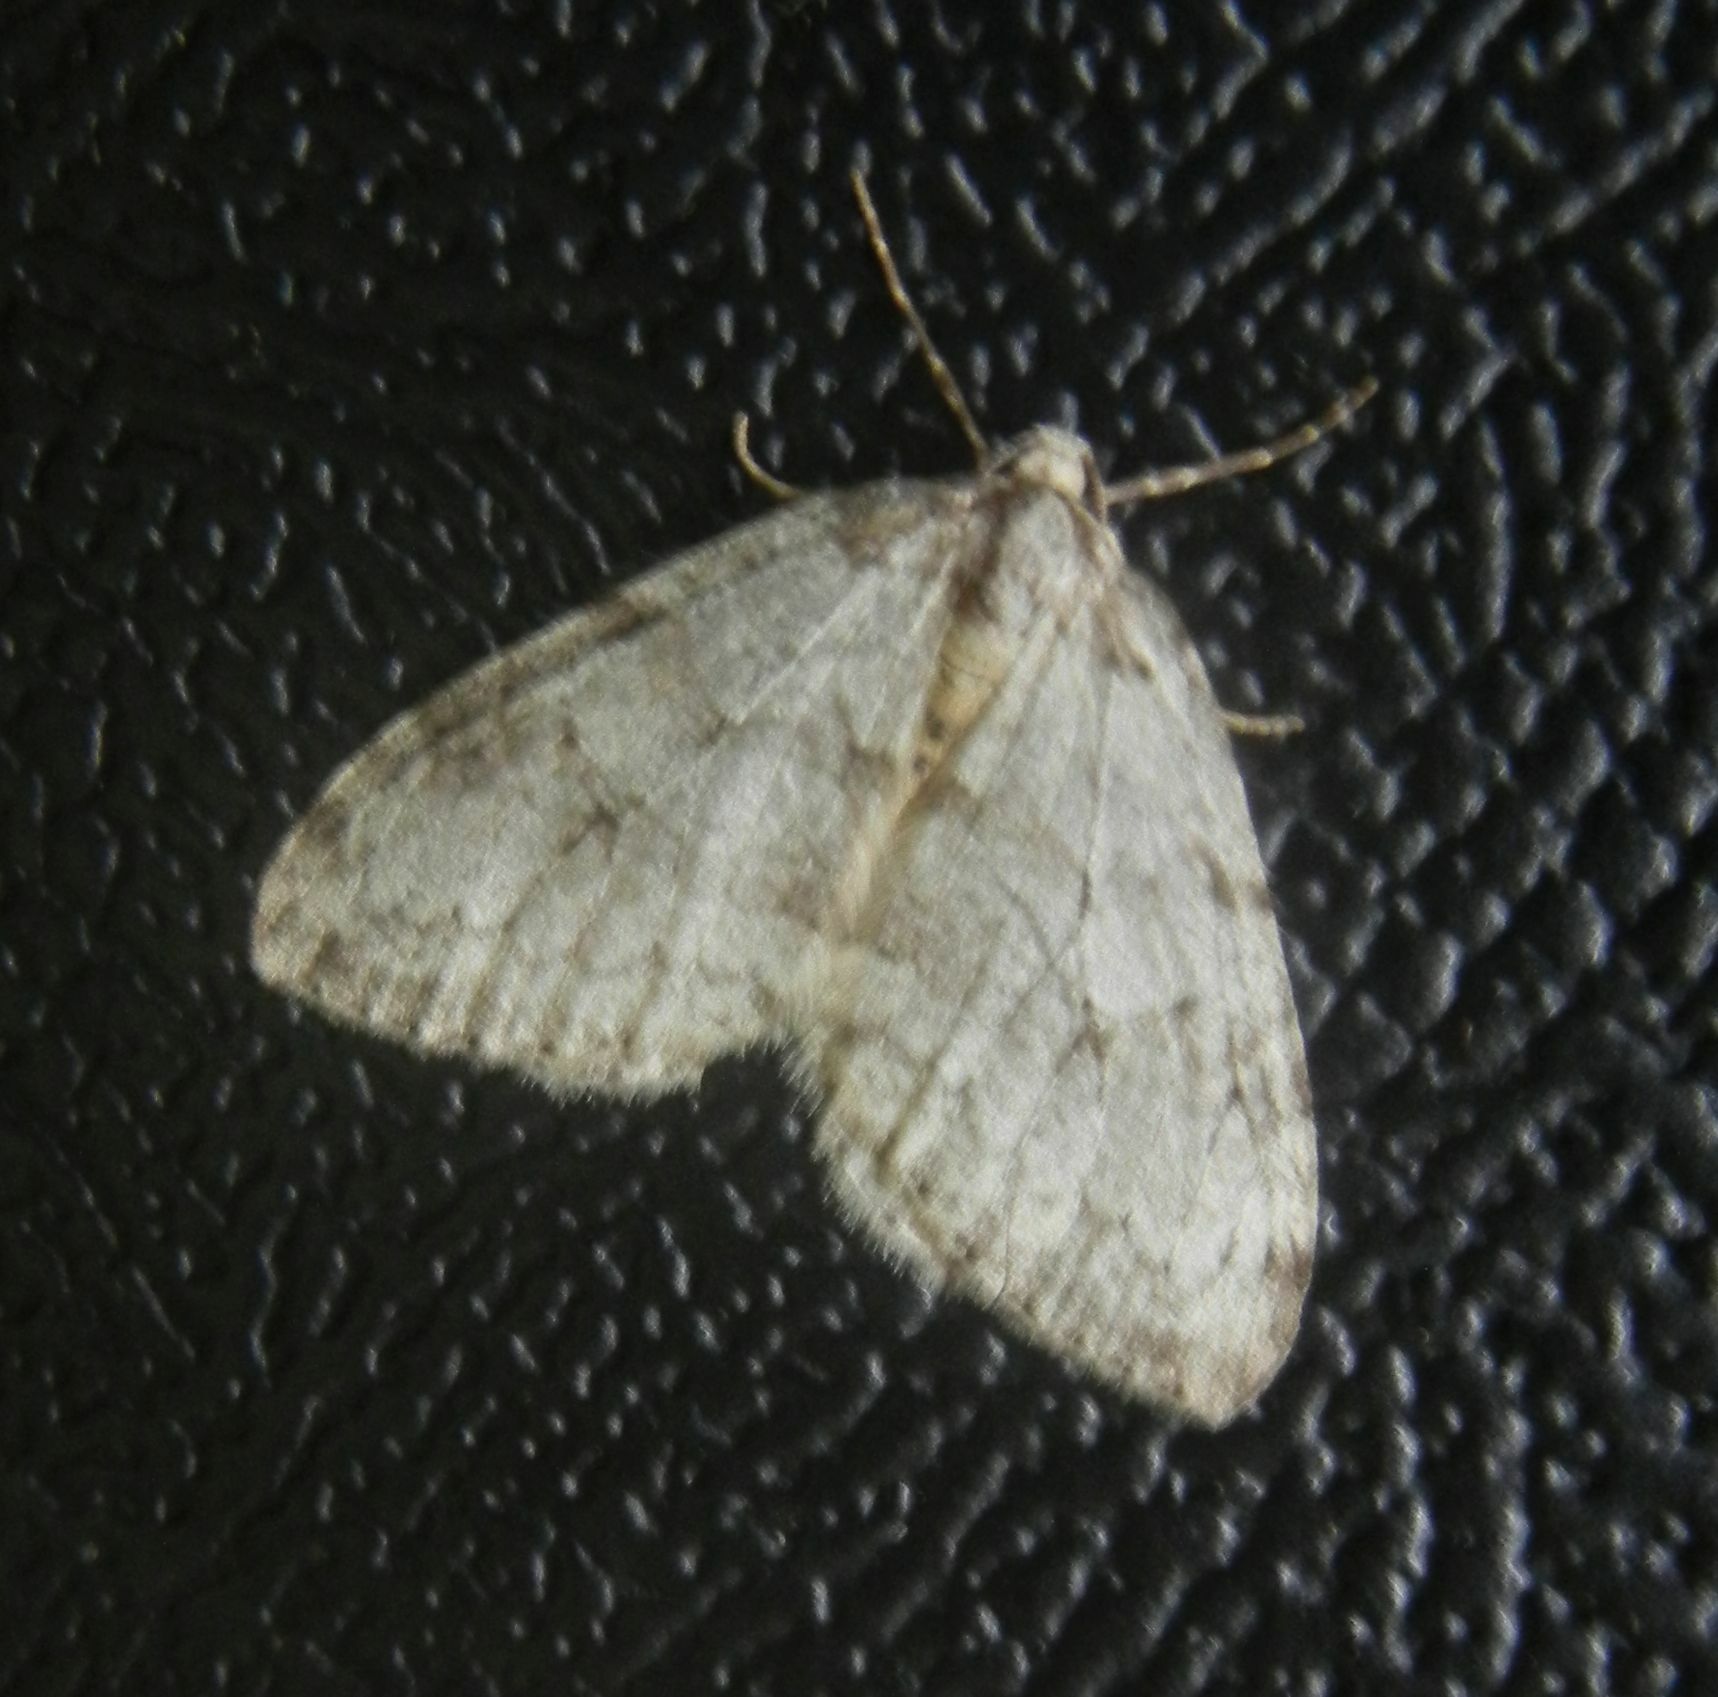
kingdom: Animalia
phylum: Arthropoda
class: Insecta
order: Lepidoptera
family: Geometridae
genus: Epirrita
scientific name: Epirrita dilutata
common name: November moth
